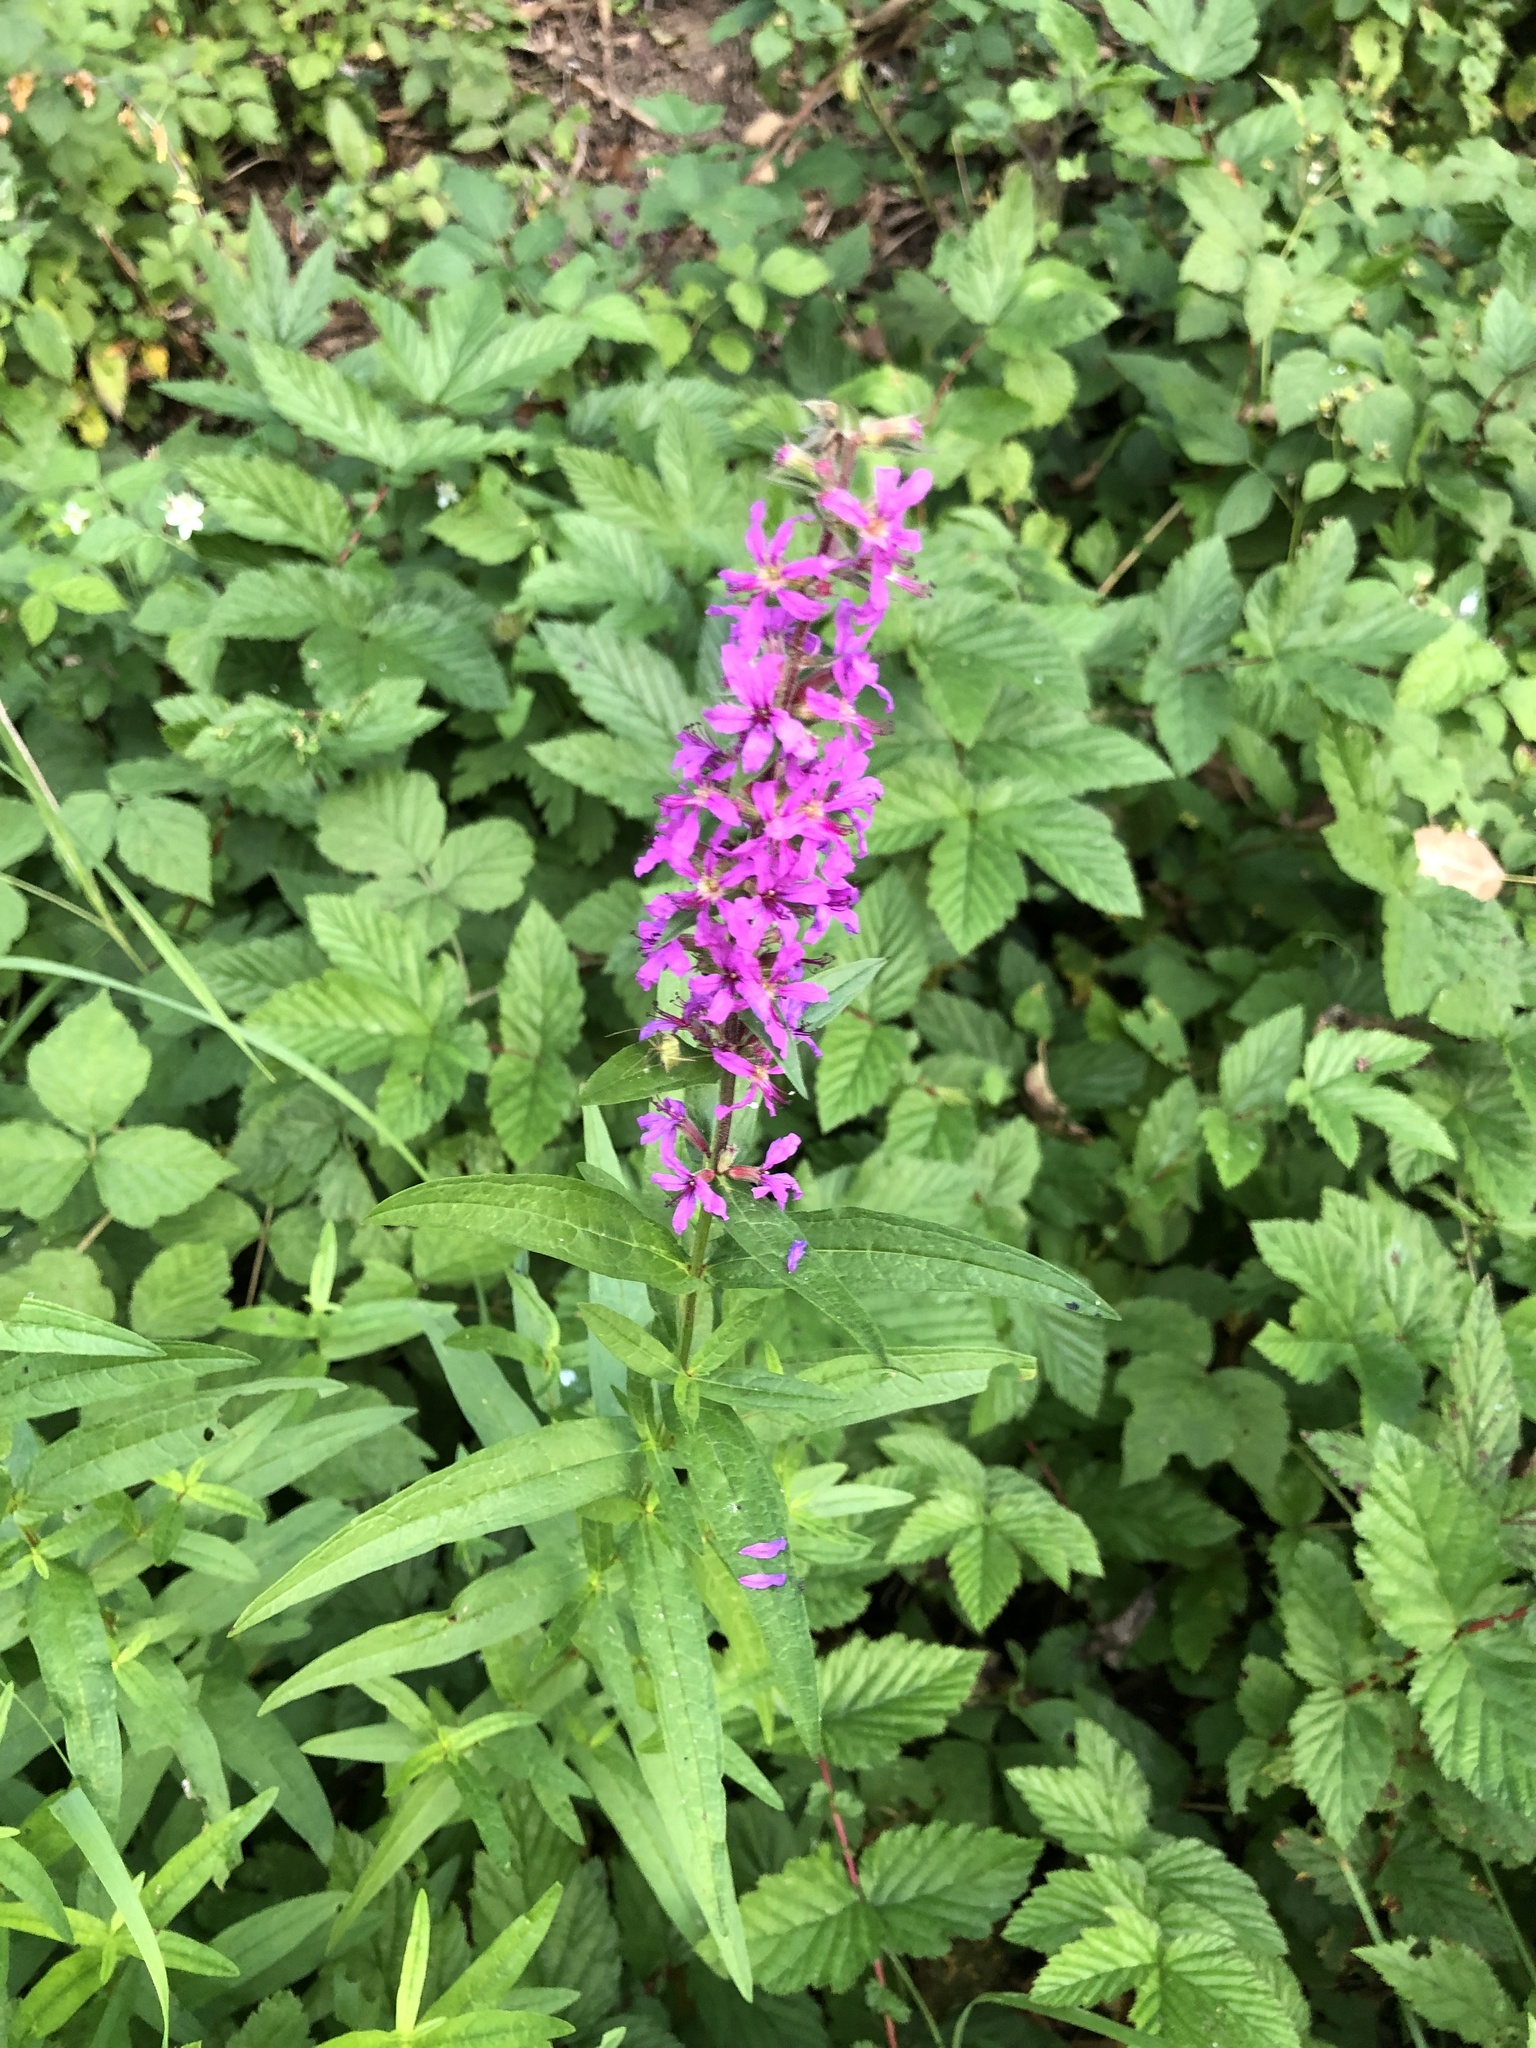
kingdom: Plantae
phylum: Tracheophyta
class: Magnoliopsida
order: Myrtales
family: Lythraceae
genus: Lythrum
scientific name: Lythrum salicaria
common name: Purple loosestrife
